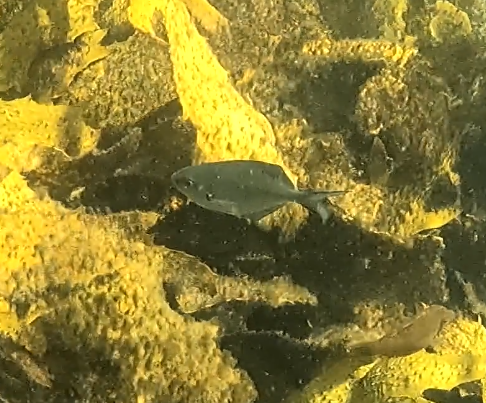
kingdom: Animalia
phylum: Chordata
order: Perciformes
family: Kyphosidae
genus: Scorpis
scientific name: Scorpis lineolata
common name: Sweep
